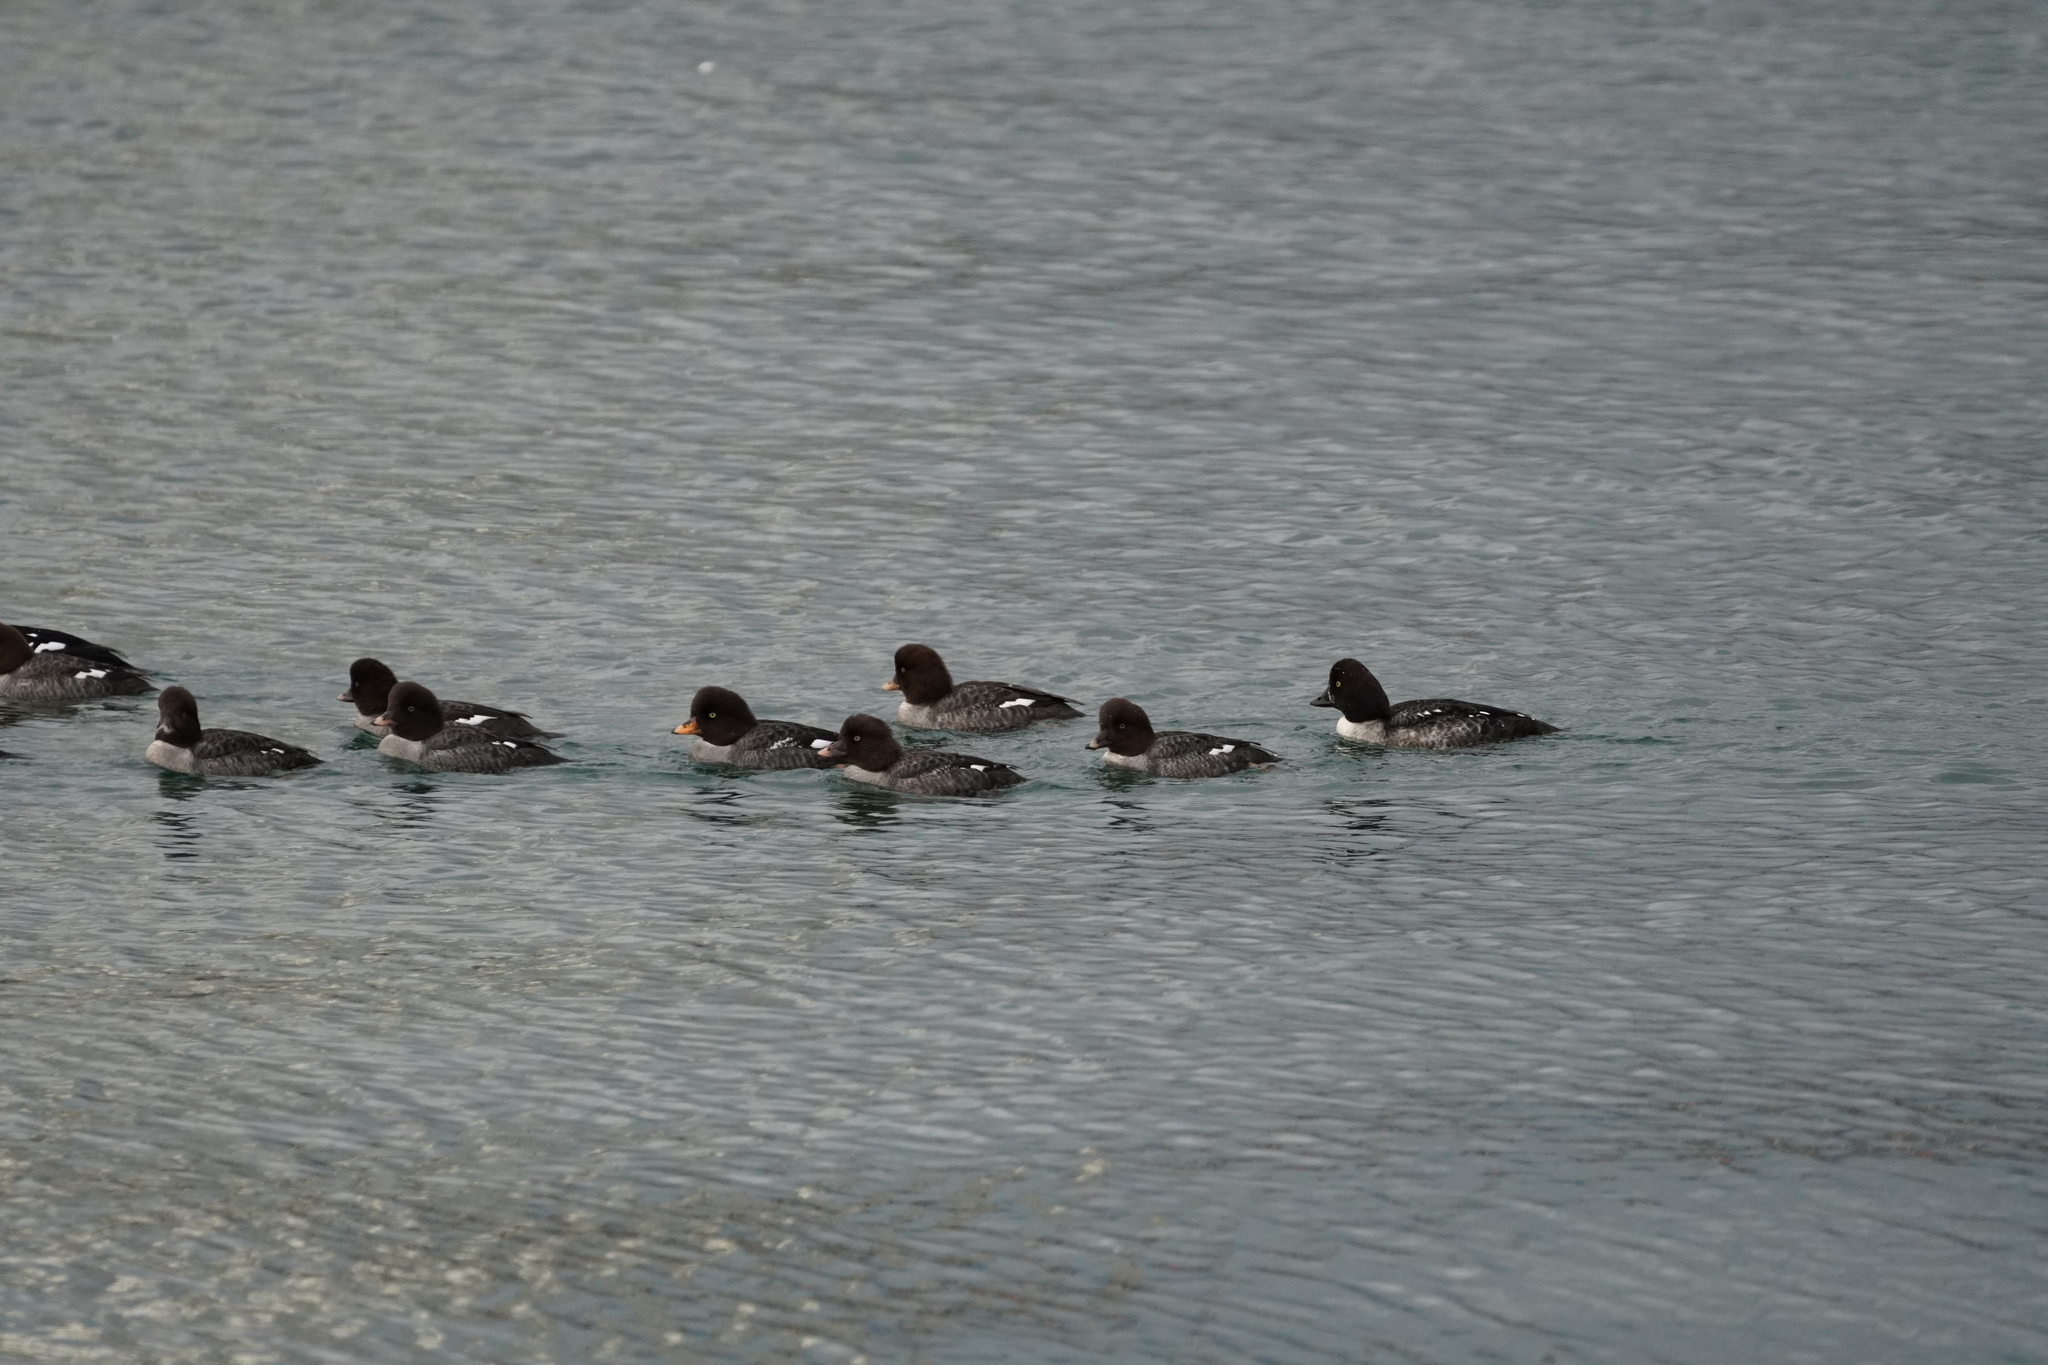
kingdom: Animalia
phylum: Chordata
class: Aves
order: Anseriformes
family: Anatidae
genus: Bucephala
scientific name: Bucephala islandica
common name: Barrow's goldeneye
